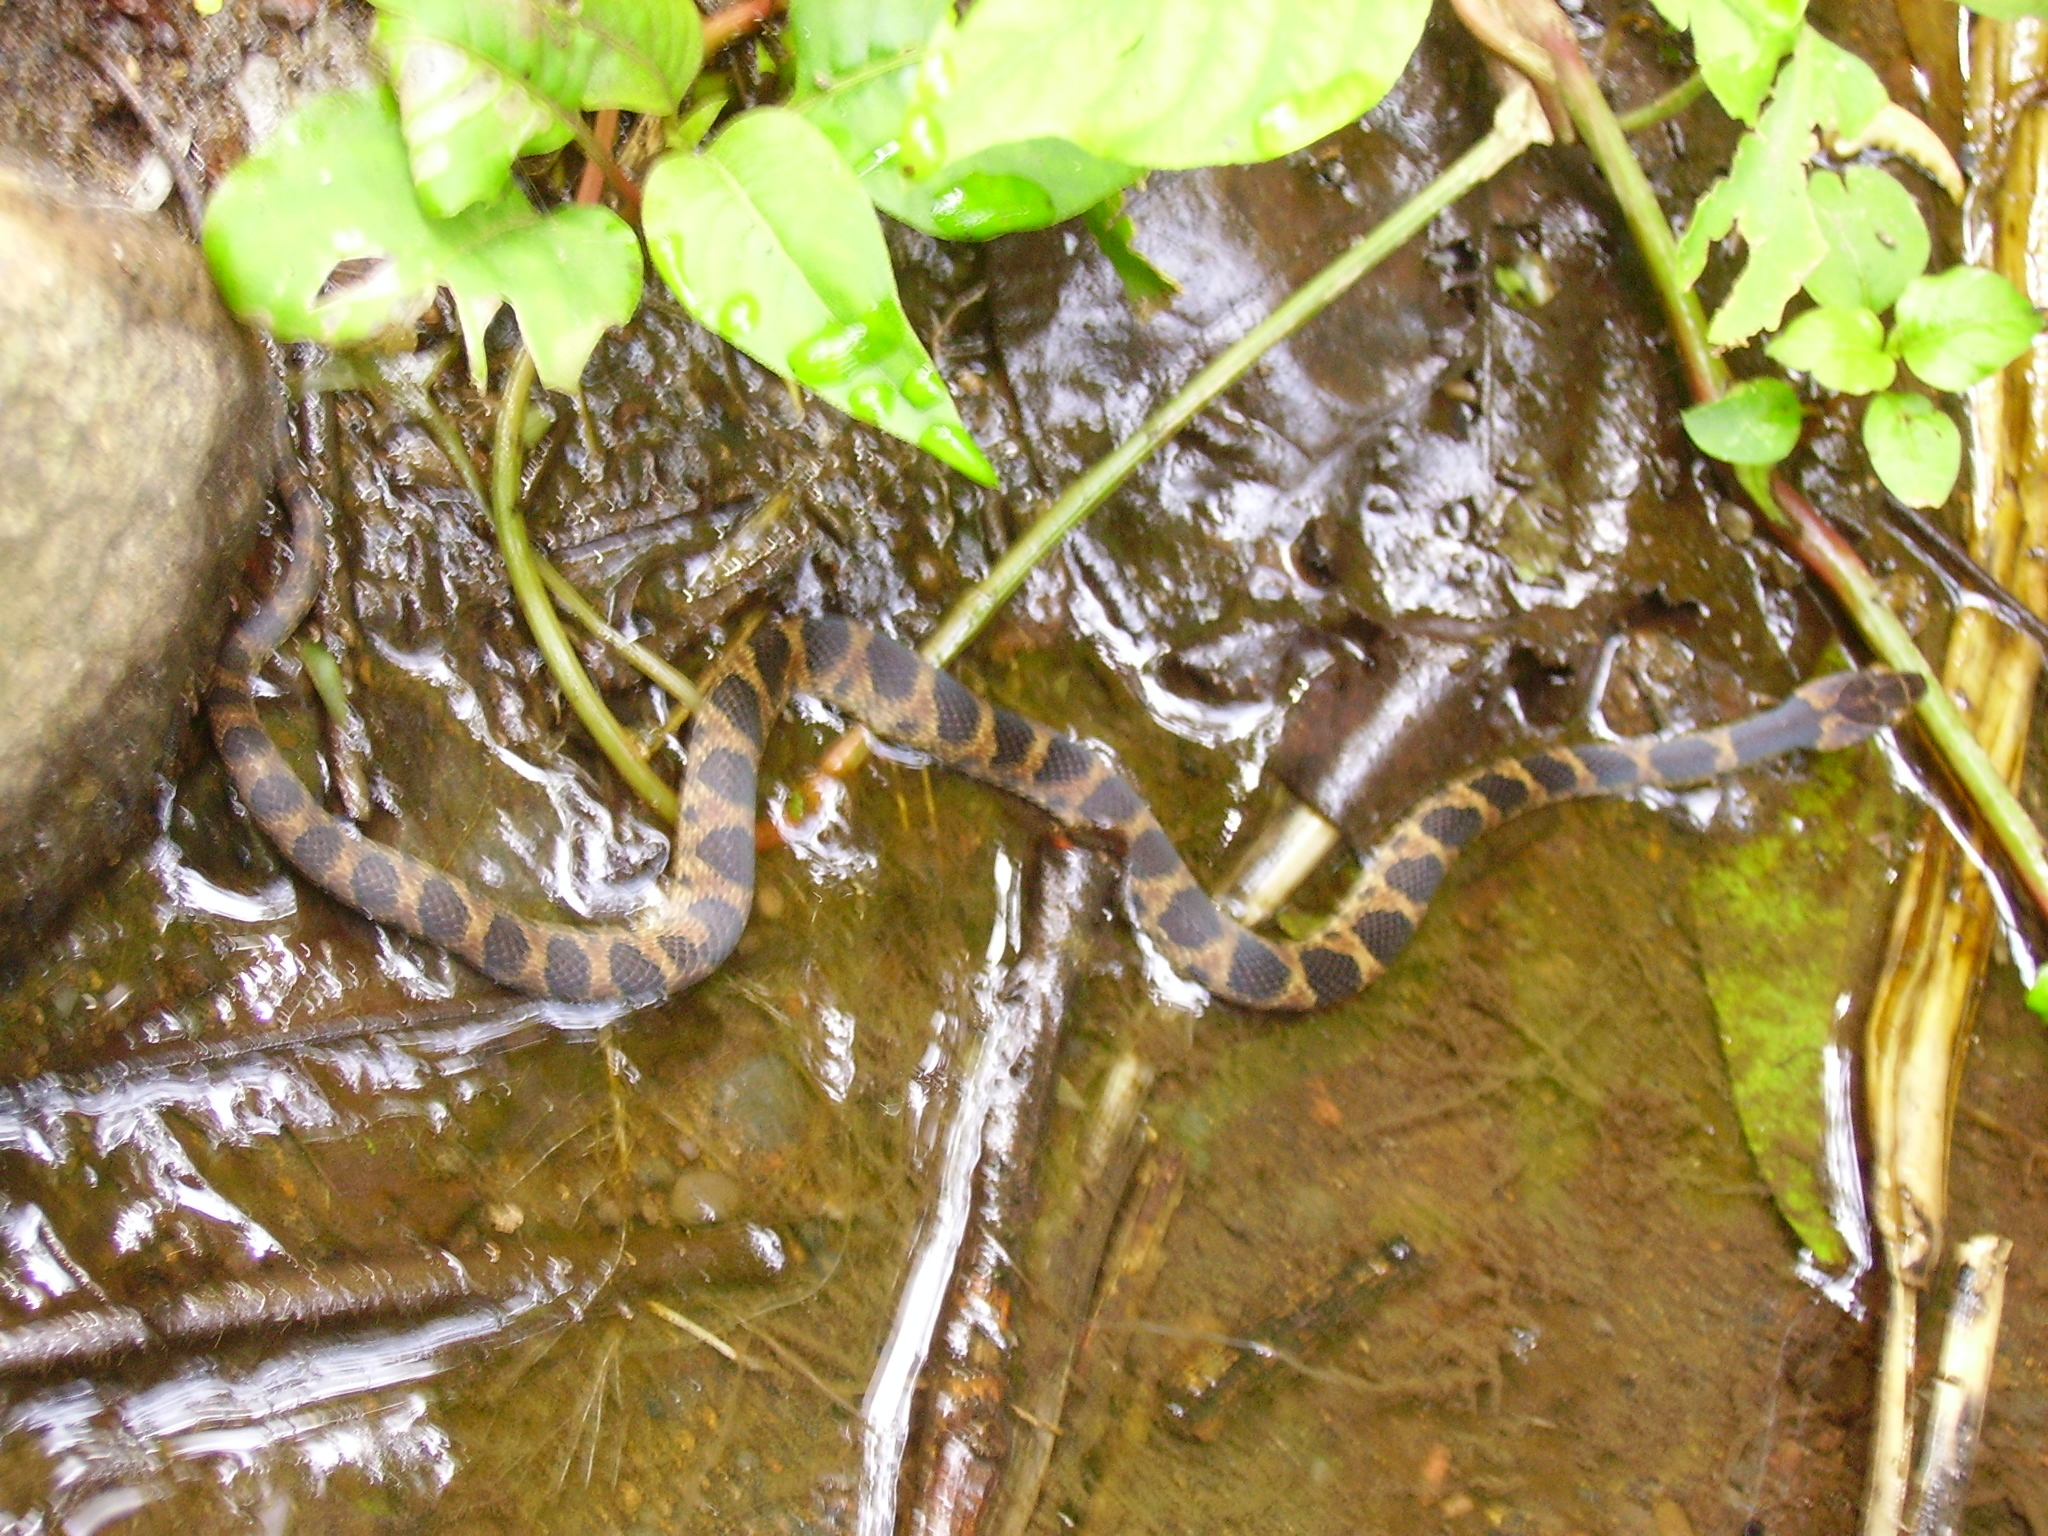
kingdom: Animalia
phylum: Chordata
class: Squamata
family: Colubridae
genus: Leptodeira
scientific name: Leptodeira rhombifera
